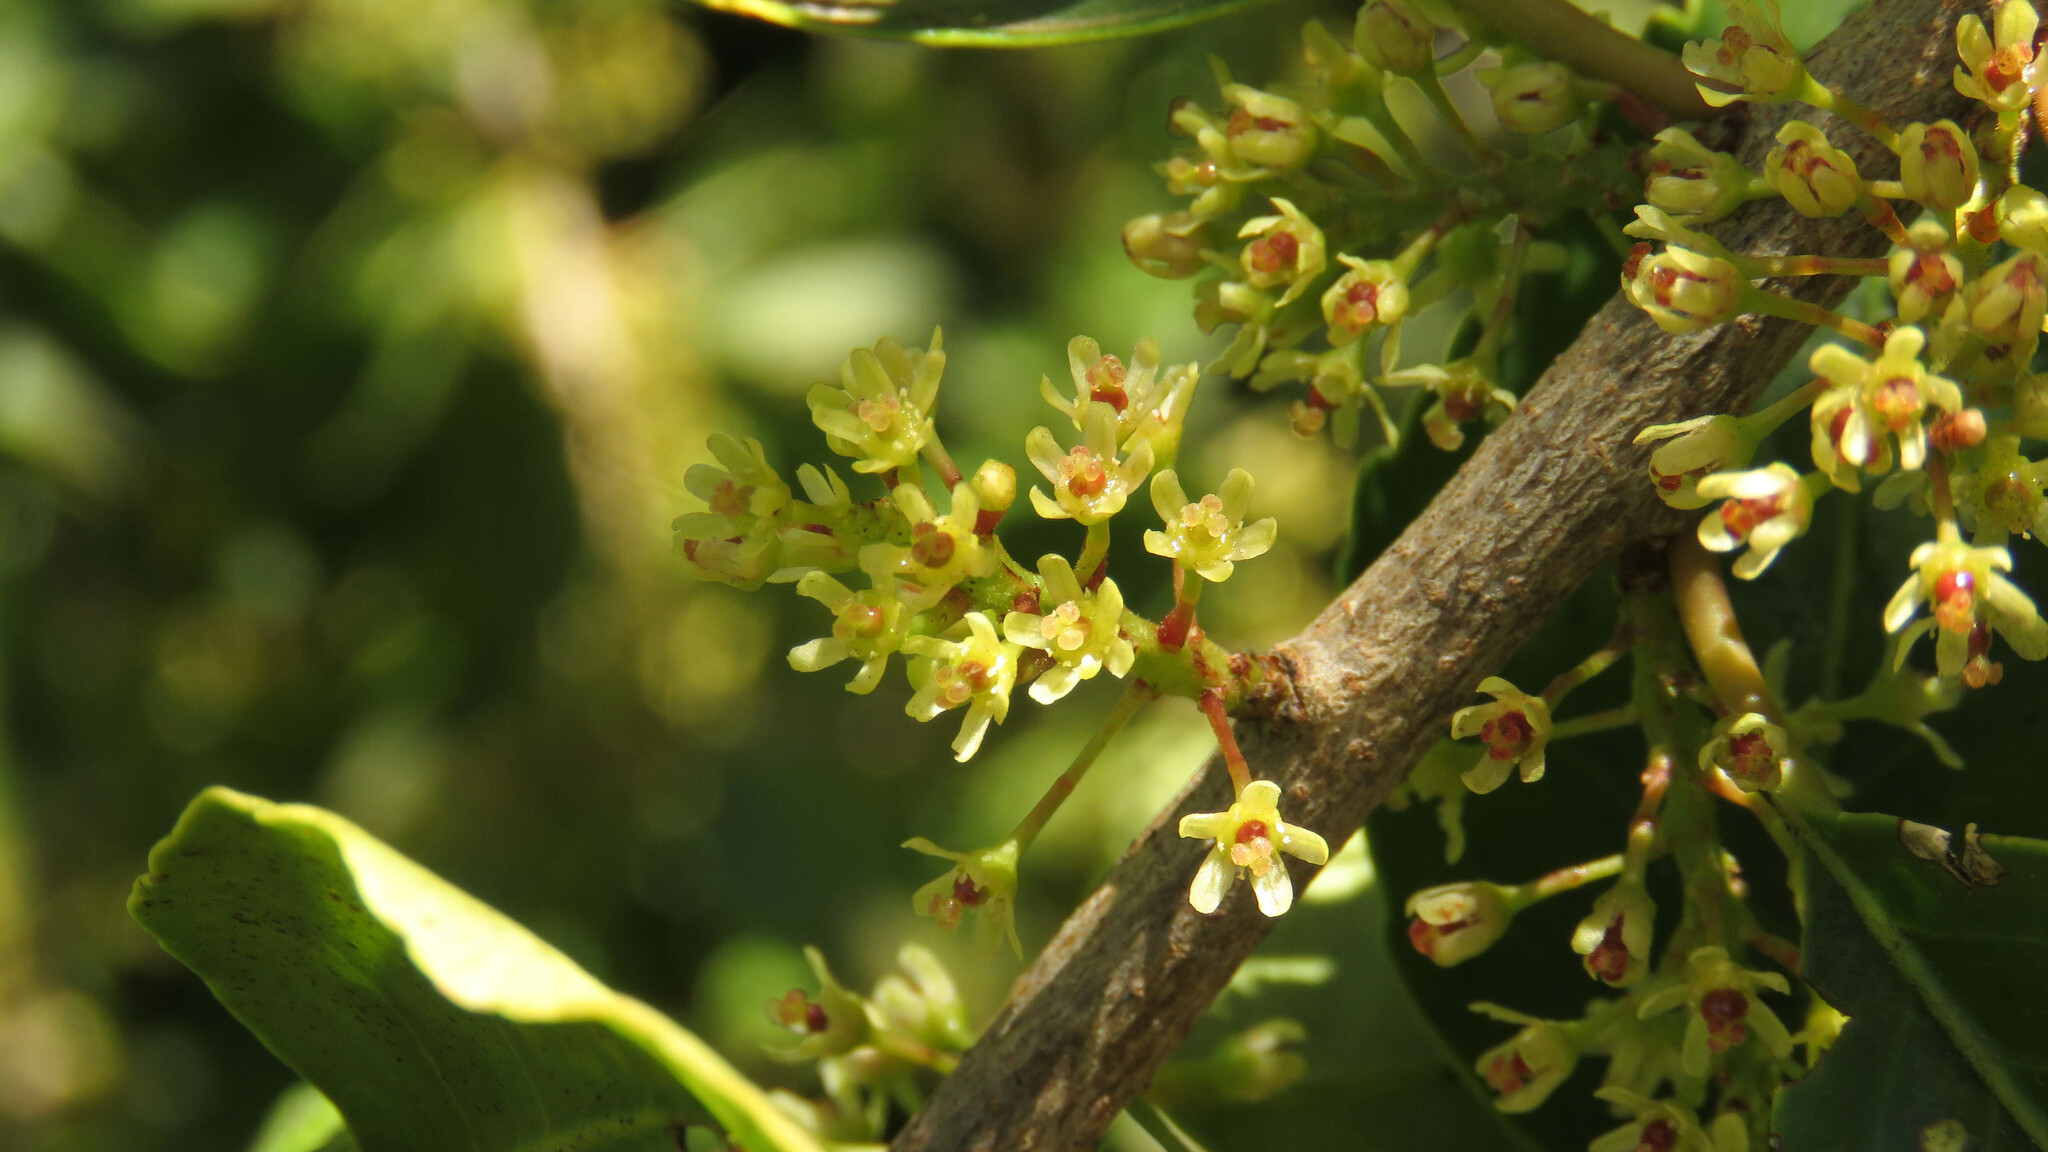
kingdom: Plantae
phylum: Tracheophyta
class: Magnoliopsida
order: Sapindales
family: Anacardiaceae
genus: Schinus
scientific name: Schinus patagonica
